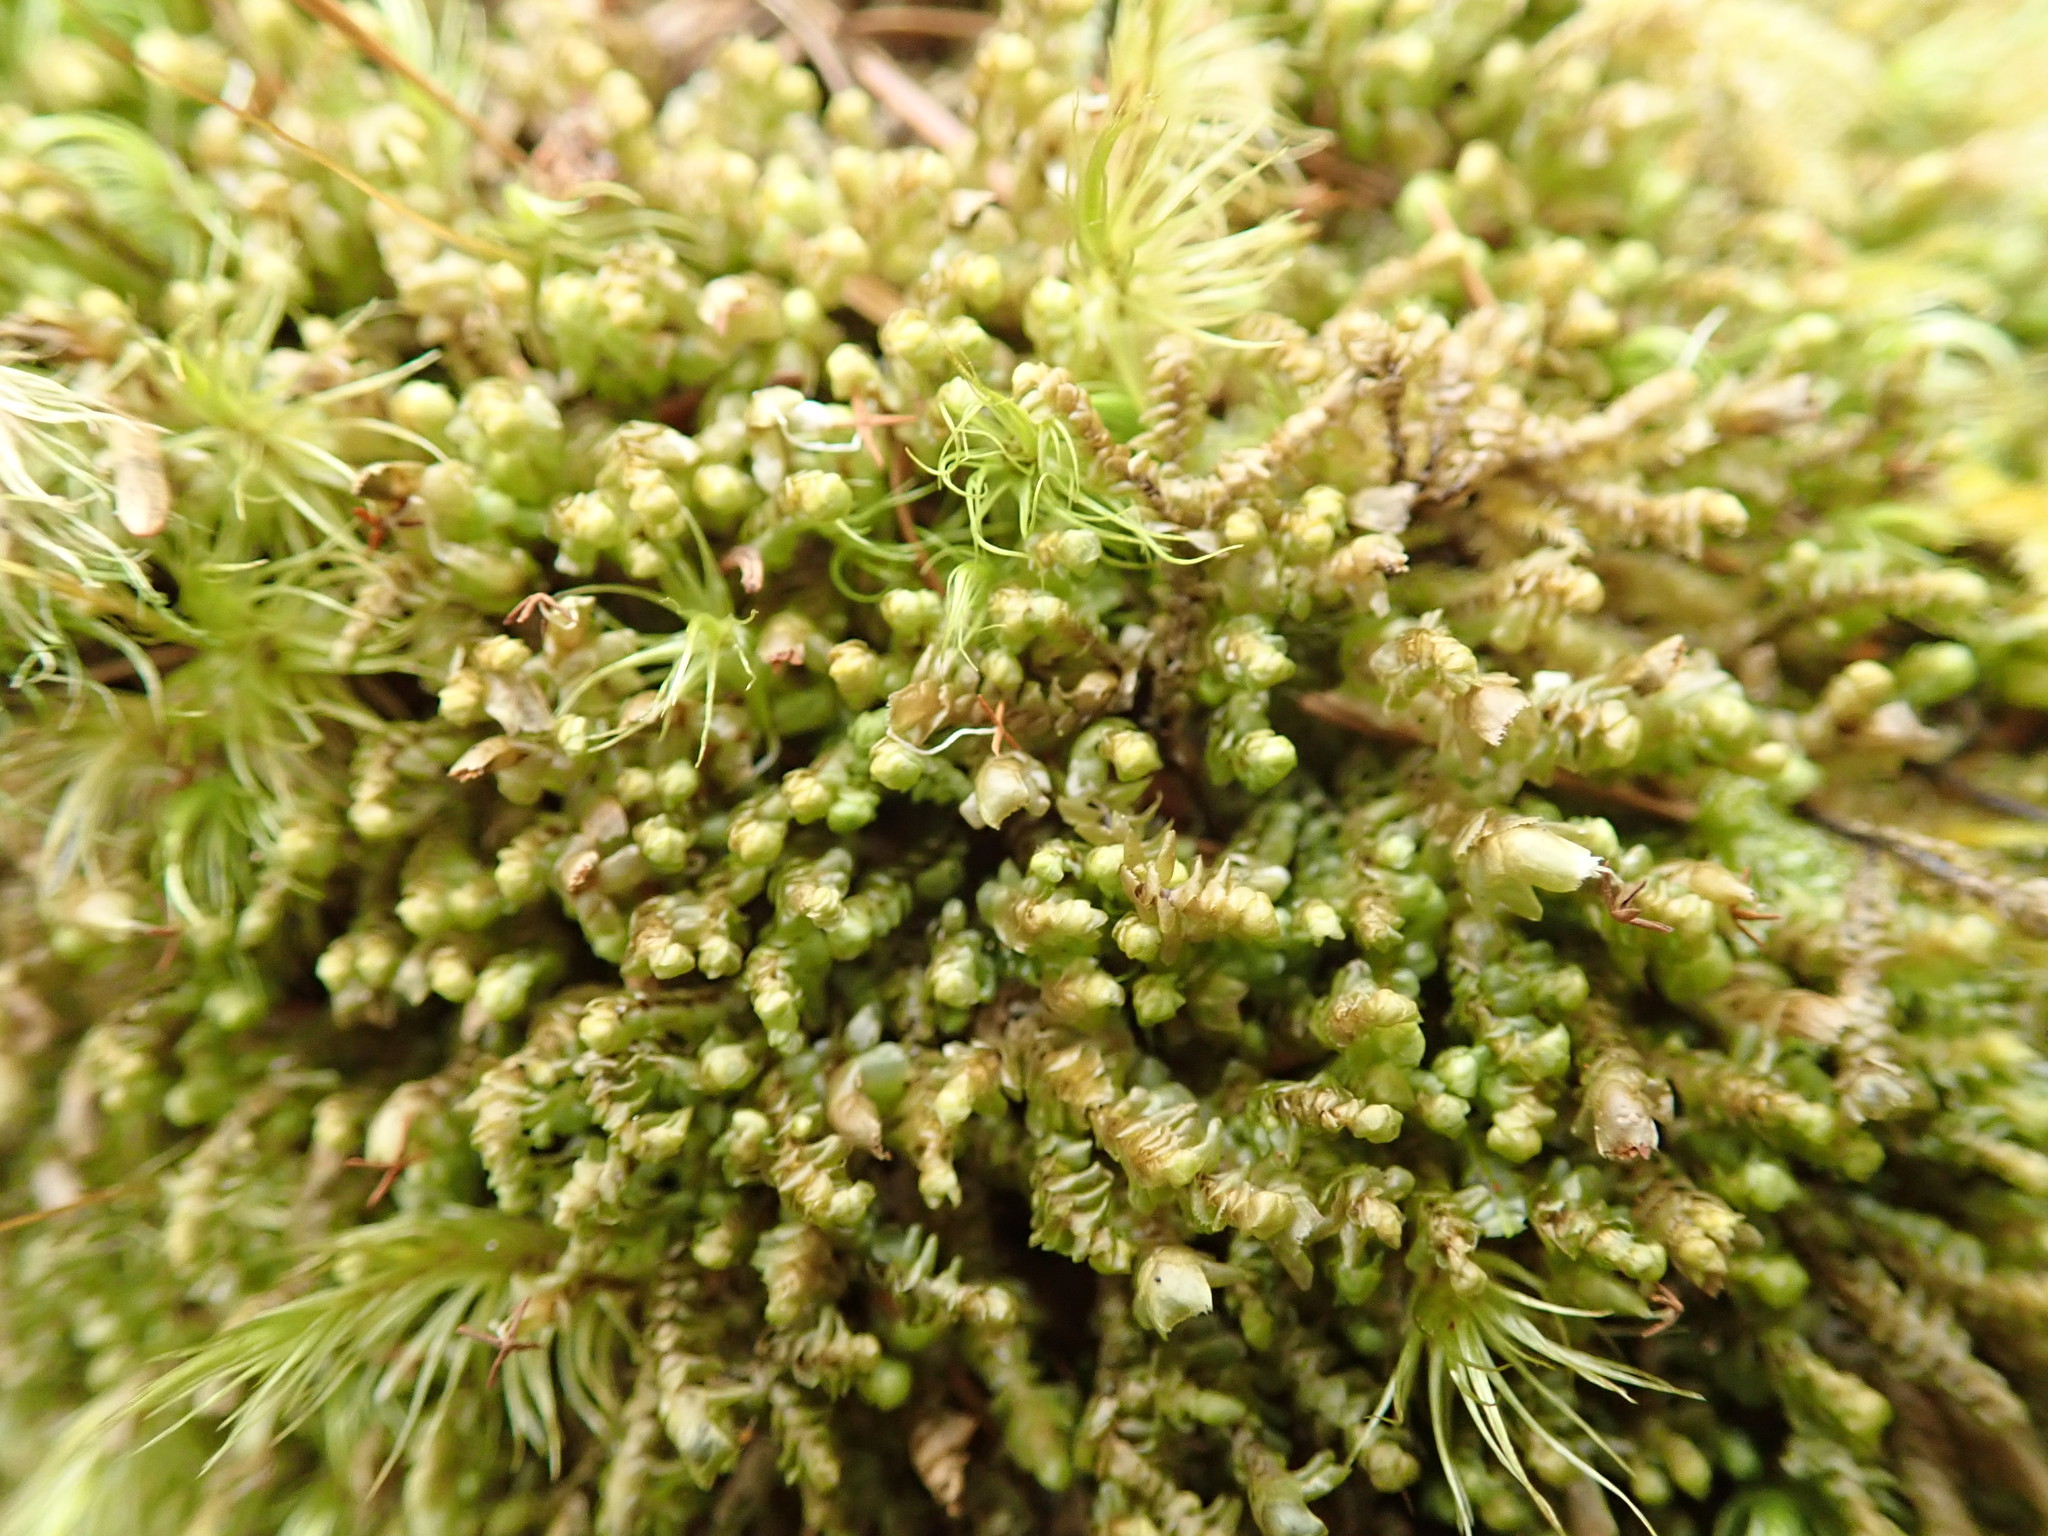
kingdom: Plantae
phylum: Marchantiophyta
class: Jungermanniopsida
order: Jungermanniales
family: Scapaniaceae
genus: Scapania
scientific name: Scapania bolanderi
